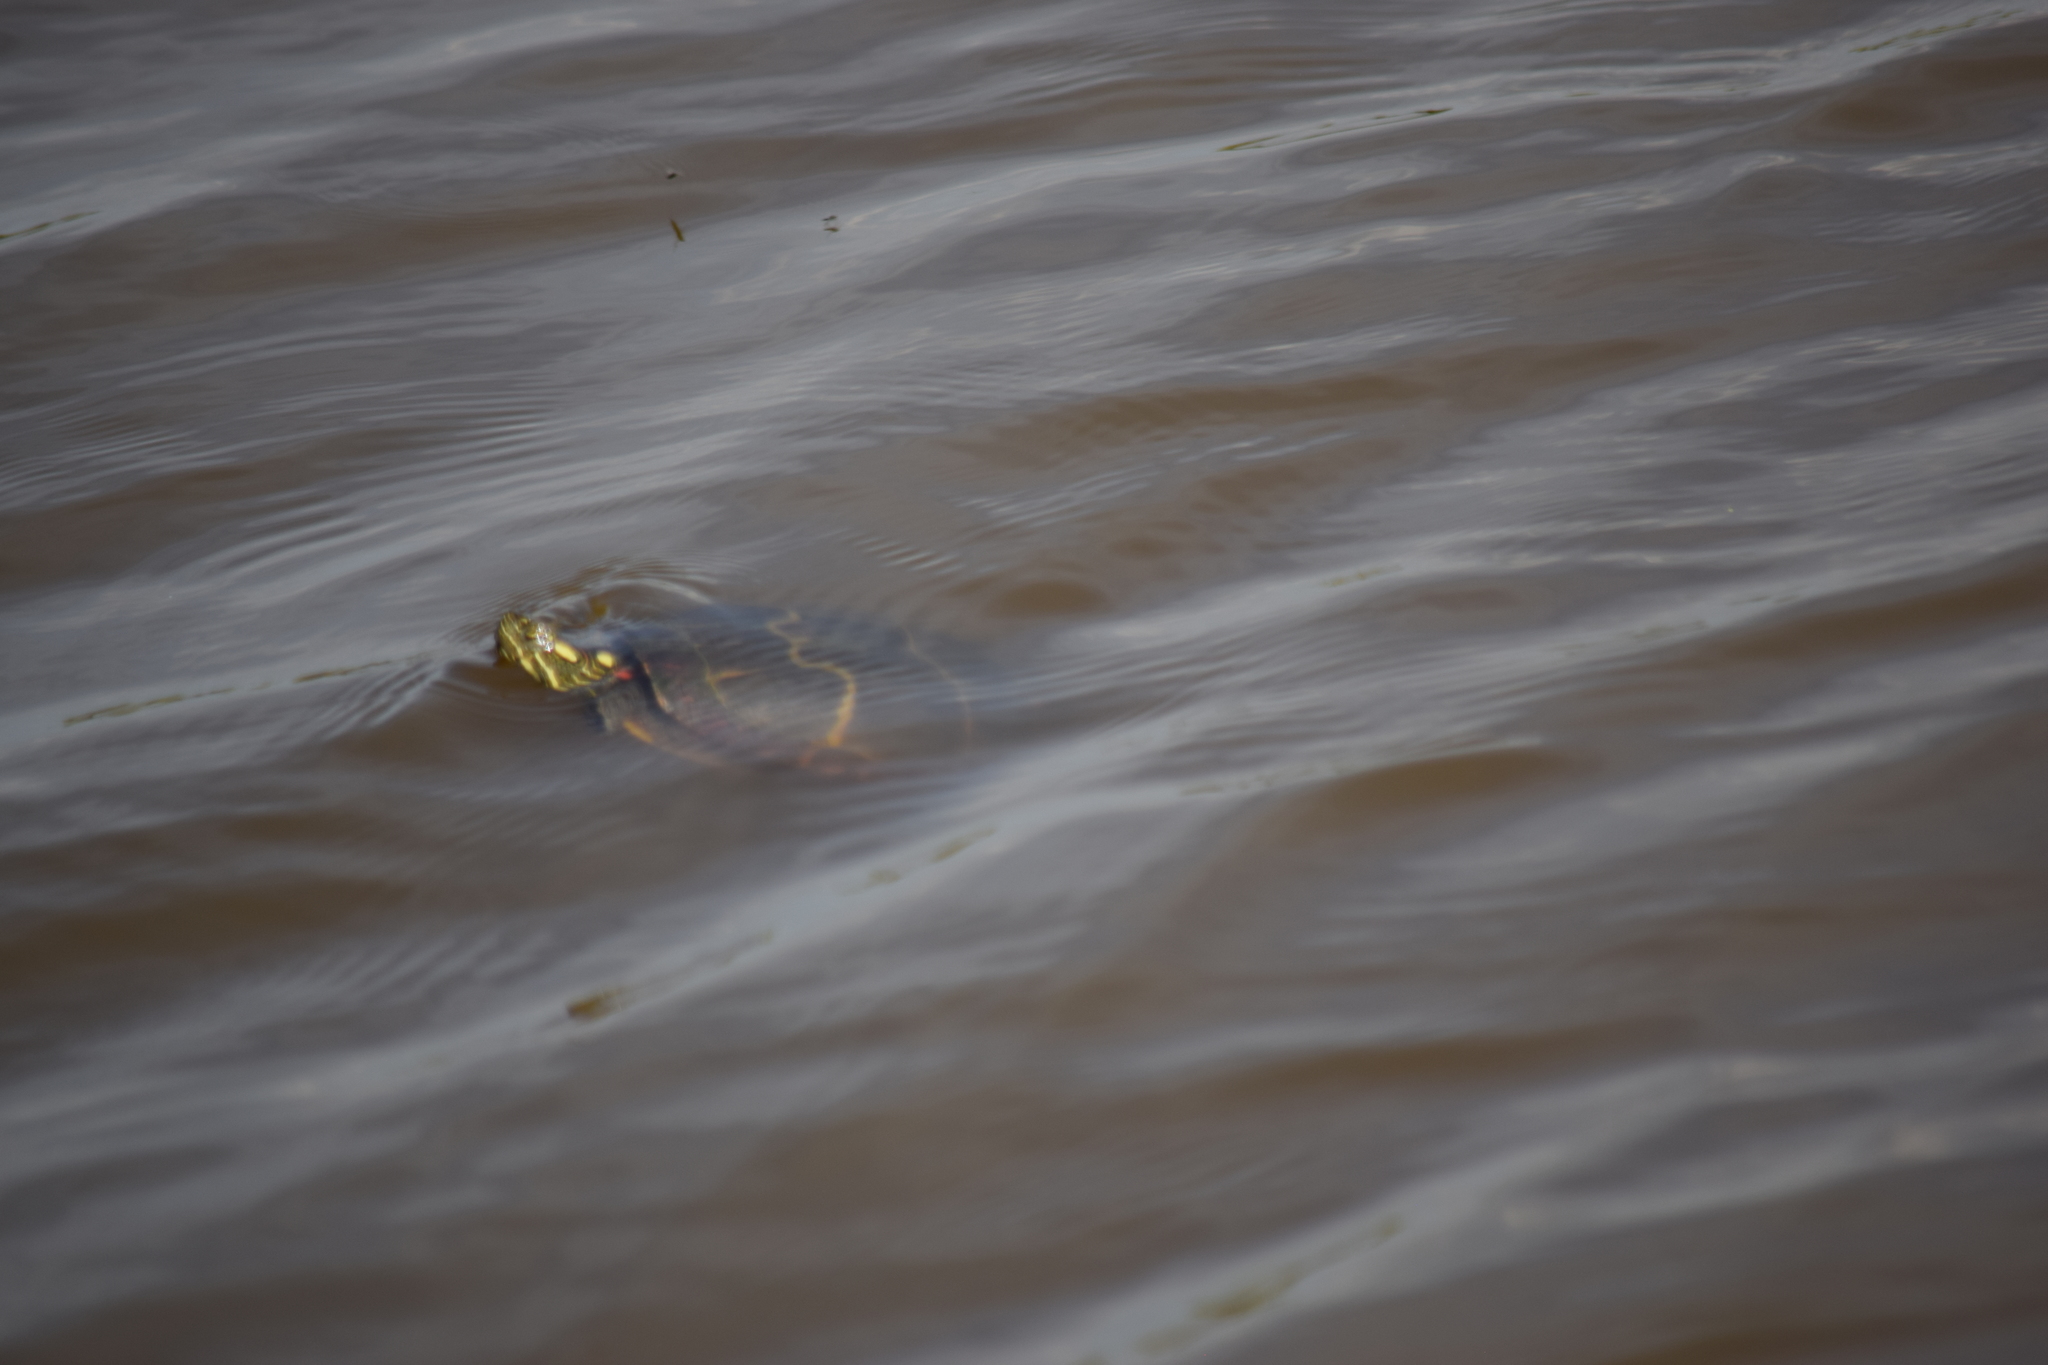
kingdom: Animalia
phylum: Chordata
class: Testudines
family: Emydidae
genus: Chrysemys
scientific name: Chrysemys picta
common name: Painted turtle
